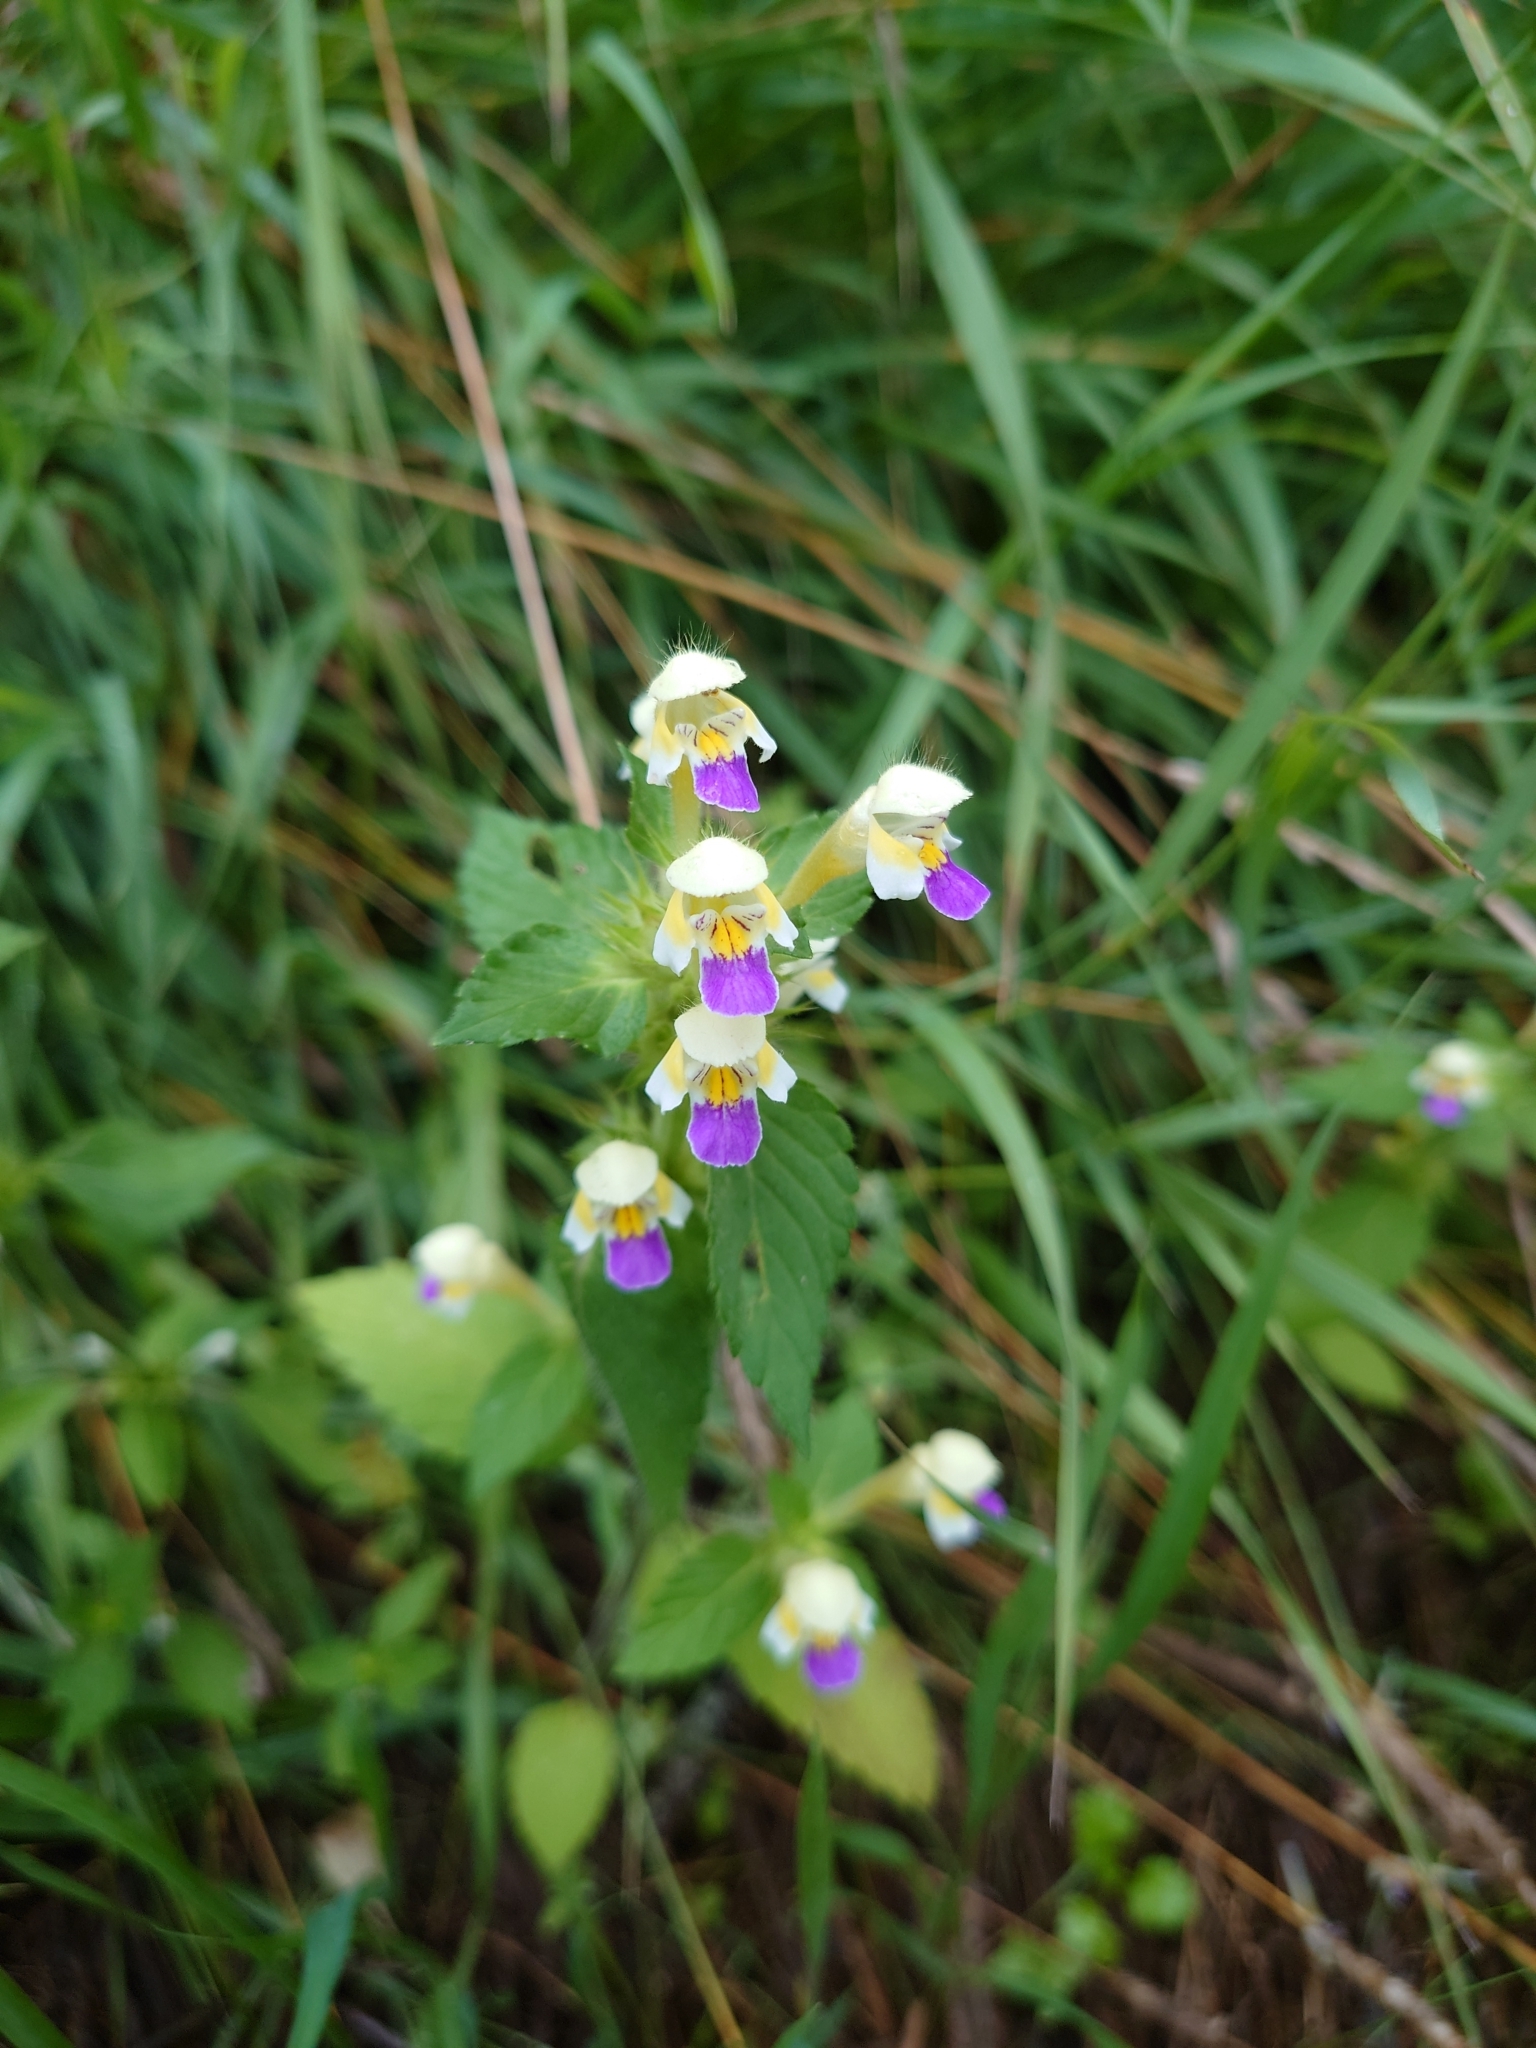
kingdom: Plantae
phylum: Tracheophyta
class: Magnoliopsida
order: Lamiales
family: Lamiaceae
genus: Galeopsis
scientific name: Galeopsis speciosa
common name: Large-flowered hemp-nettle
